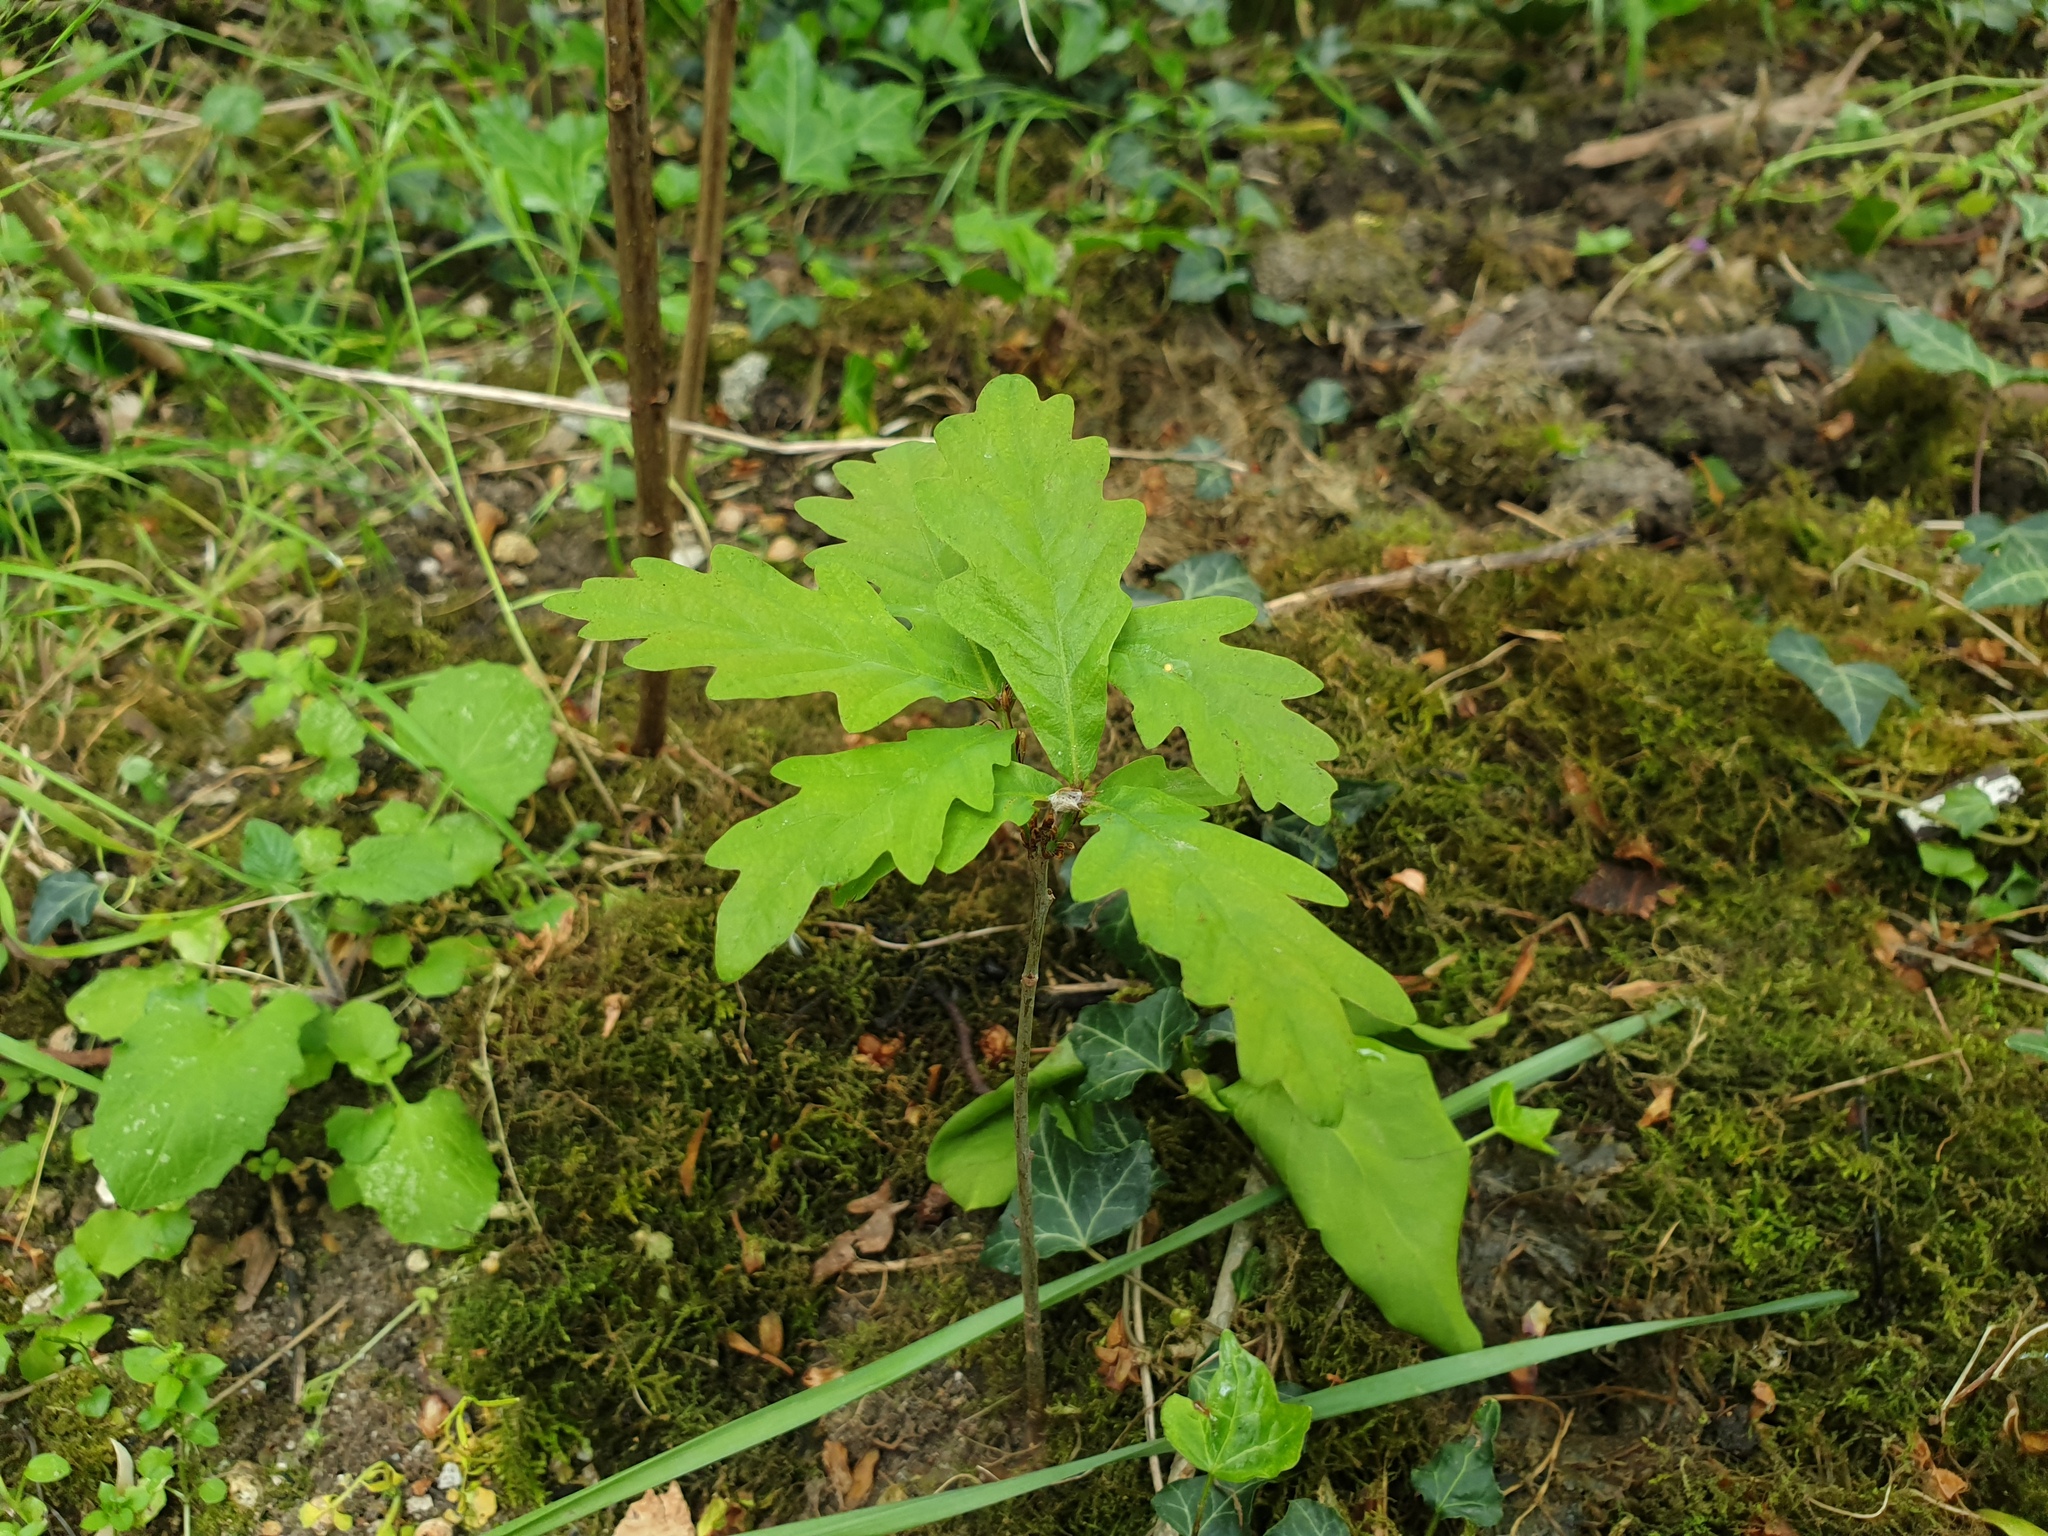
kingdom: Plantae
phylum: Tracheophyta
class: Magnoliopsida
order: Fagales
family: Fagaceae
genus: Quercus
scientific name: Quercus robur
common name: Pedunculate oak
